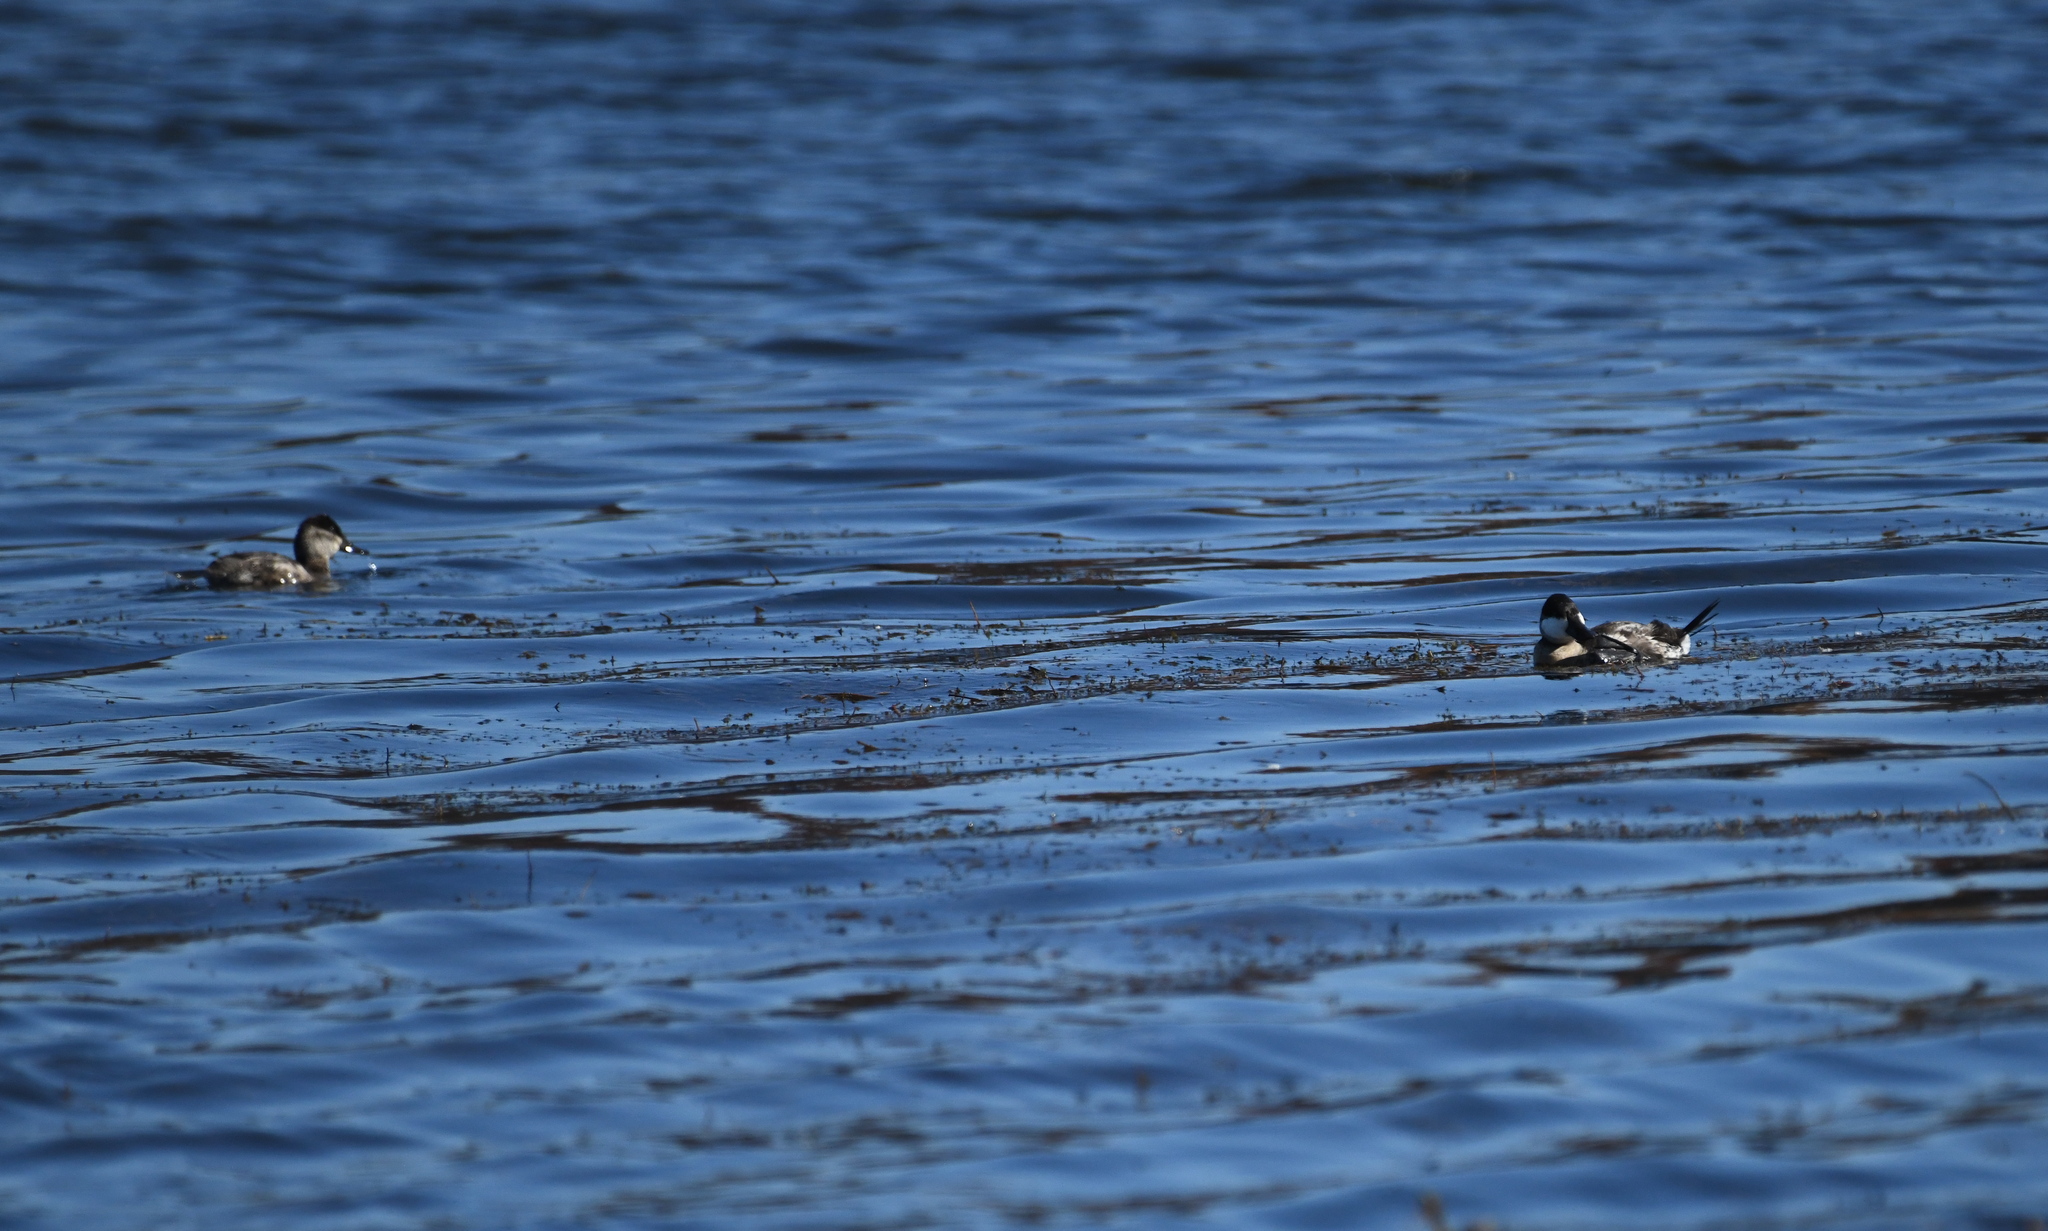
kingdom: Animalia
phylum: Chordata
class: Aves
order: Anseriformes
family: Anatidae
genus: Oxyura
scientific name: Oxyura jamaicensis
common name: Ruddy duck
